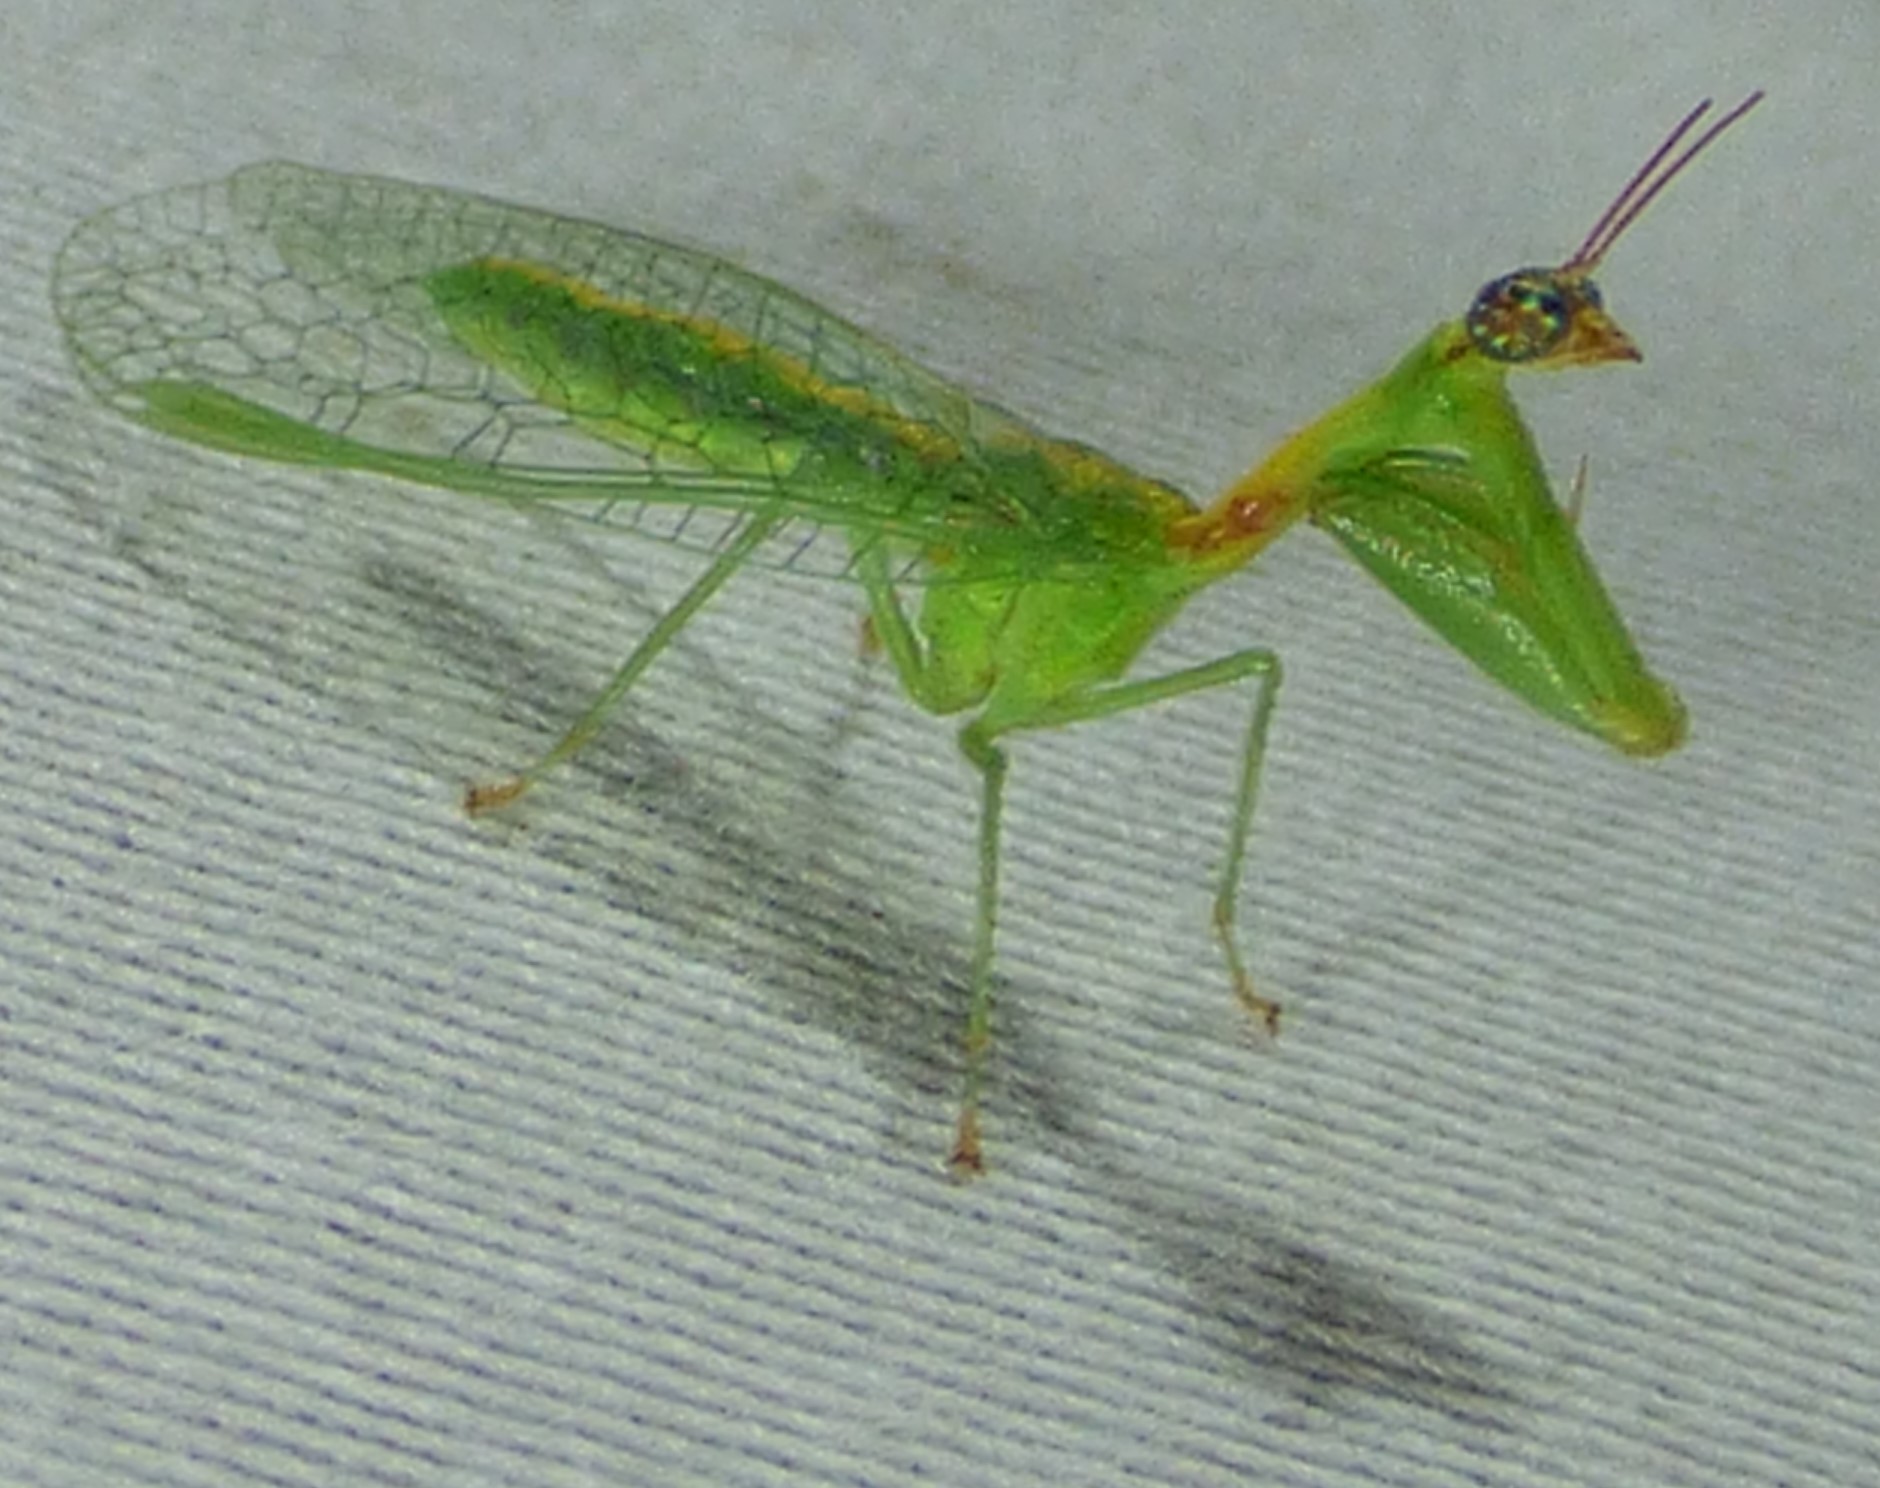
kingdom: Animalia
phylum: Arthropoda
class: Insecta
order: Neuroptera
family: Mantispidae
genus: Zeugomantispa
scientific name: Zeugomantispa minuta
